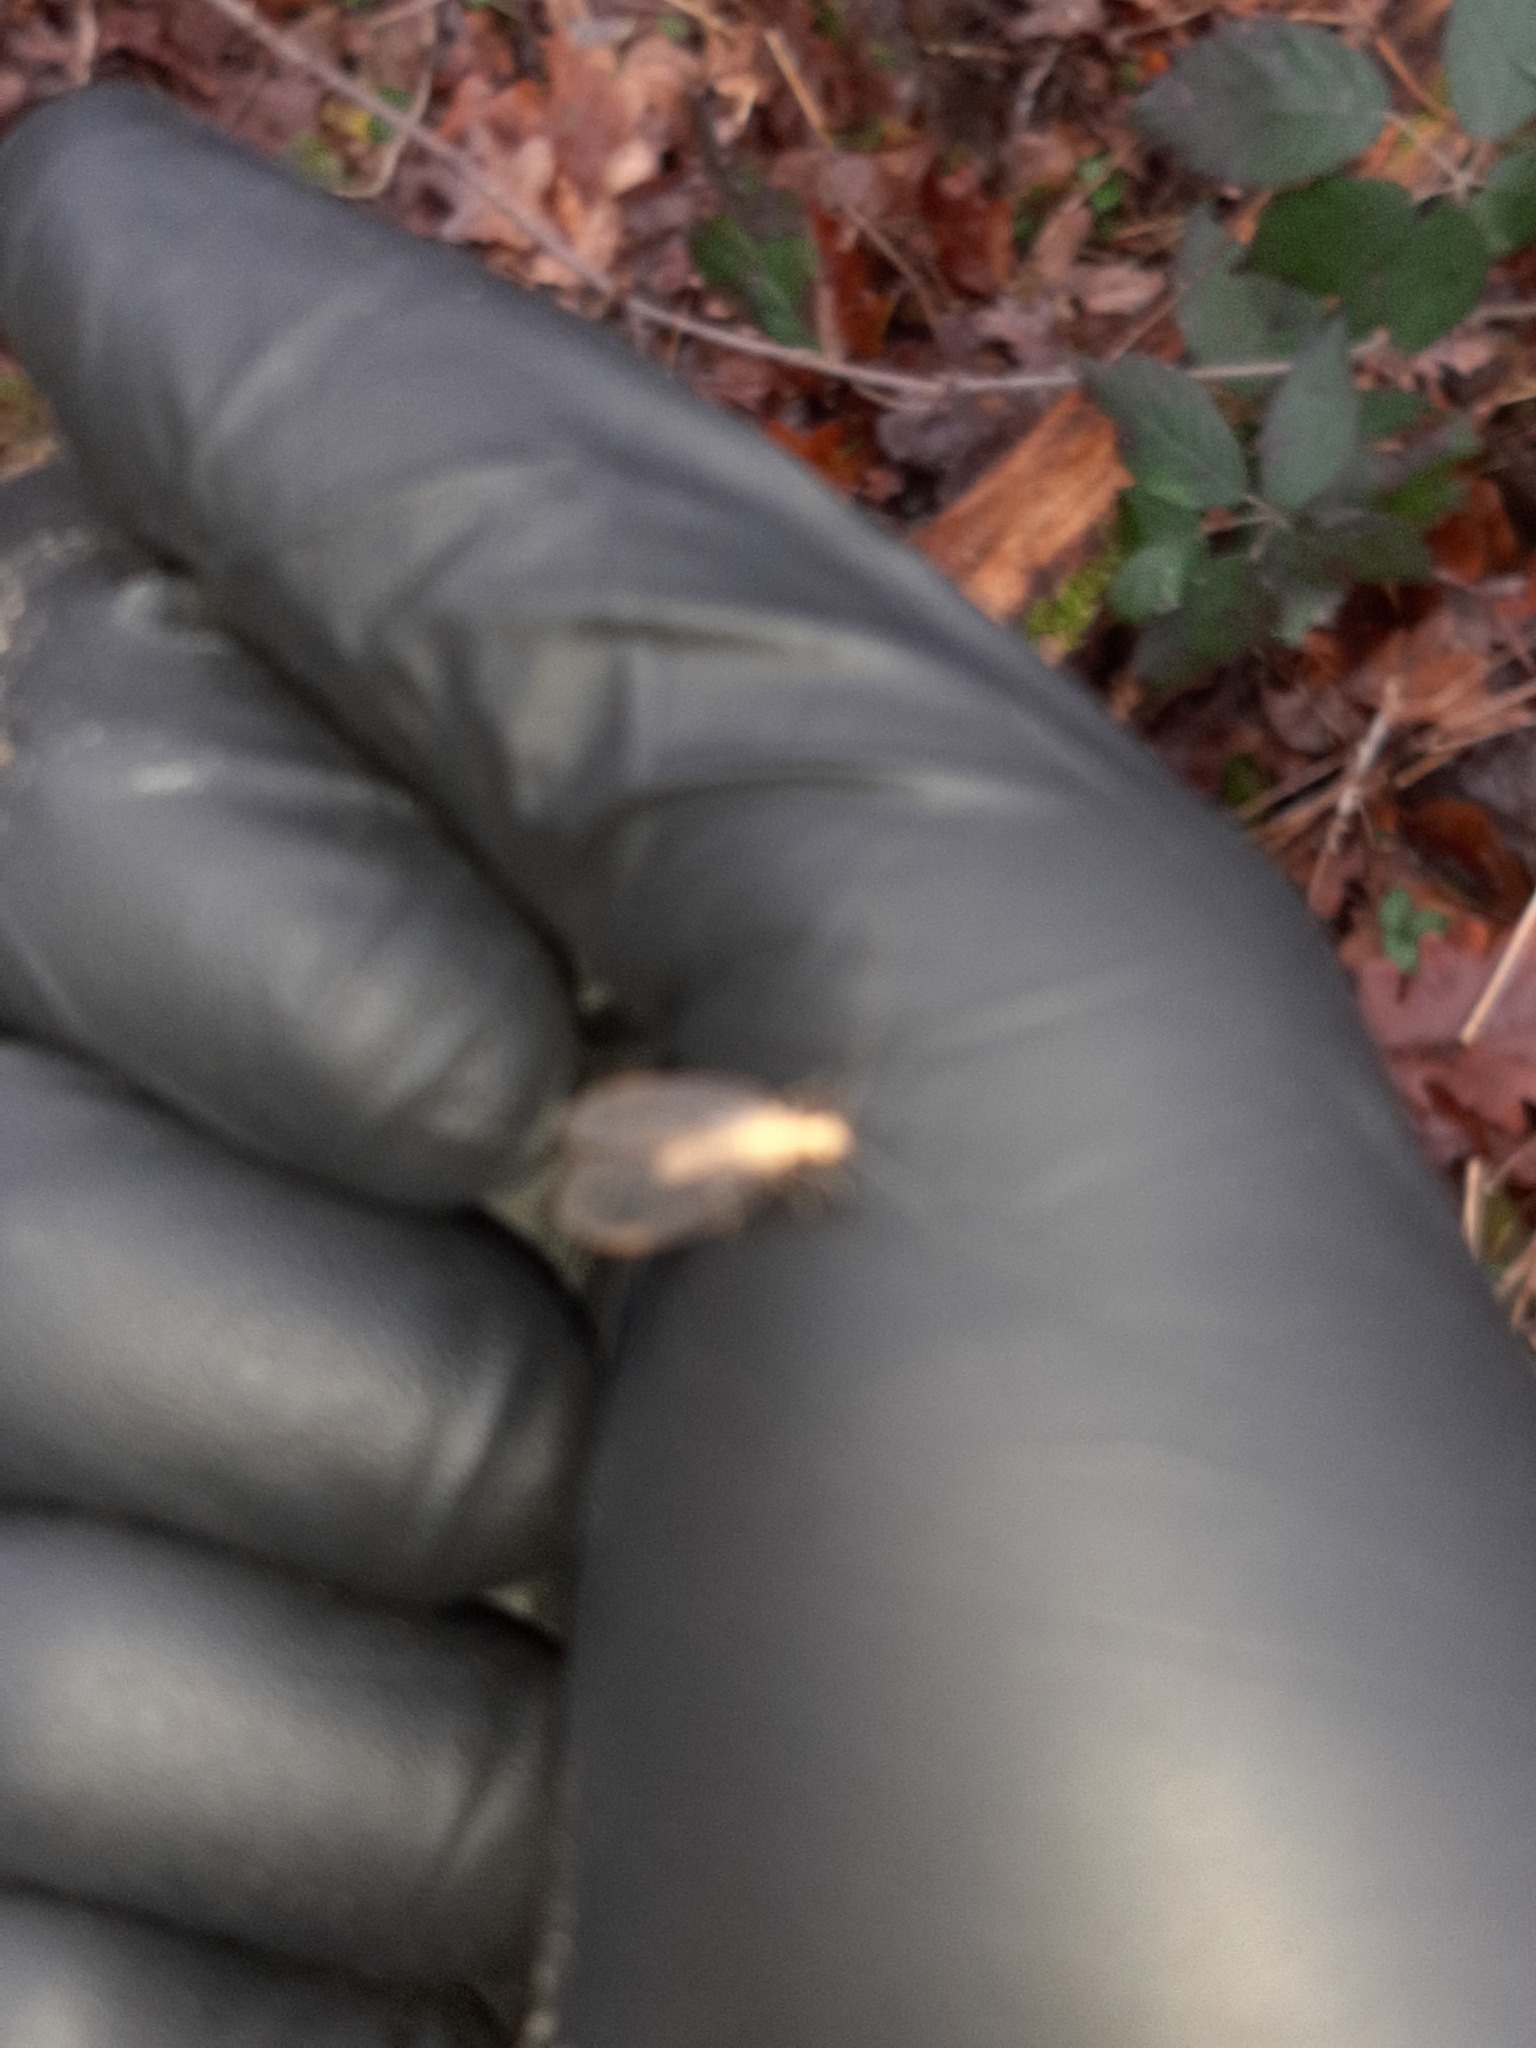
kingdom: Animalia
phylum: Arthropoda
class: Insecta
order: Neuroptera
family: Chrysopidae
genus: Chrysoperla
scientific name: Chrysoperla
